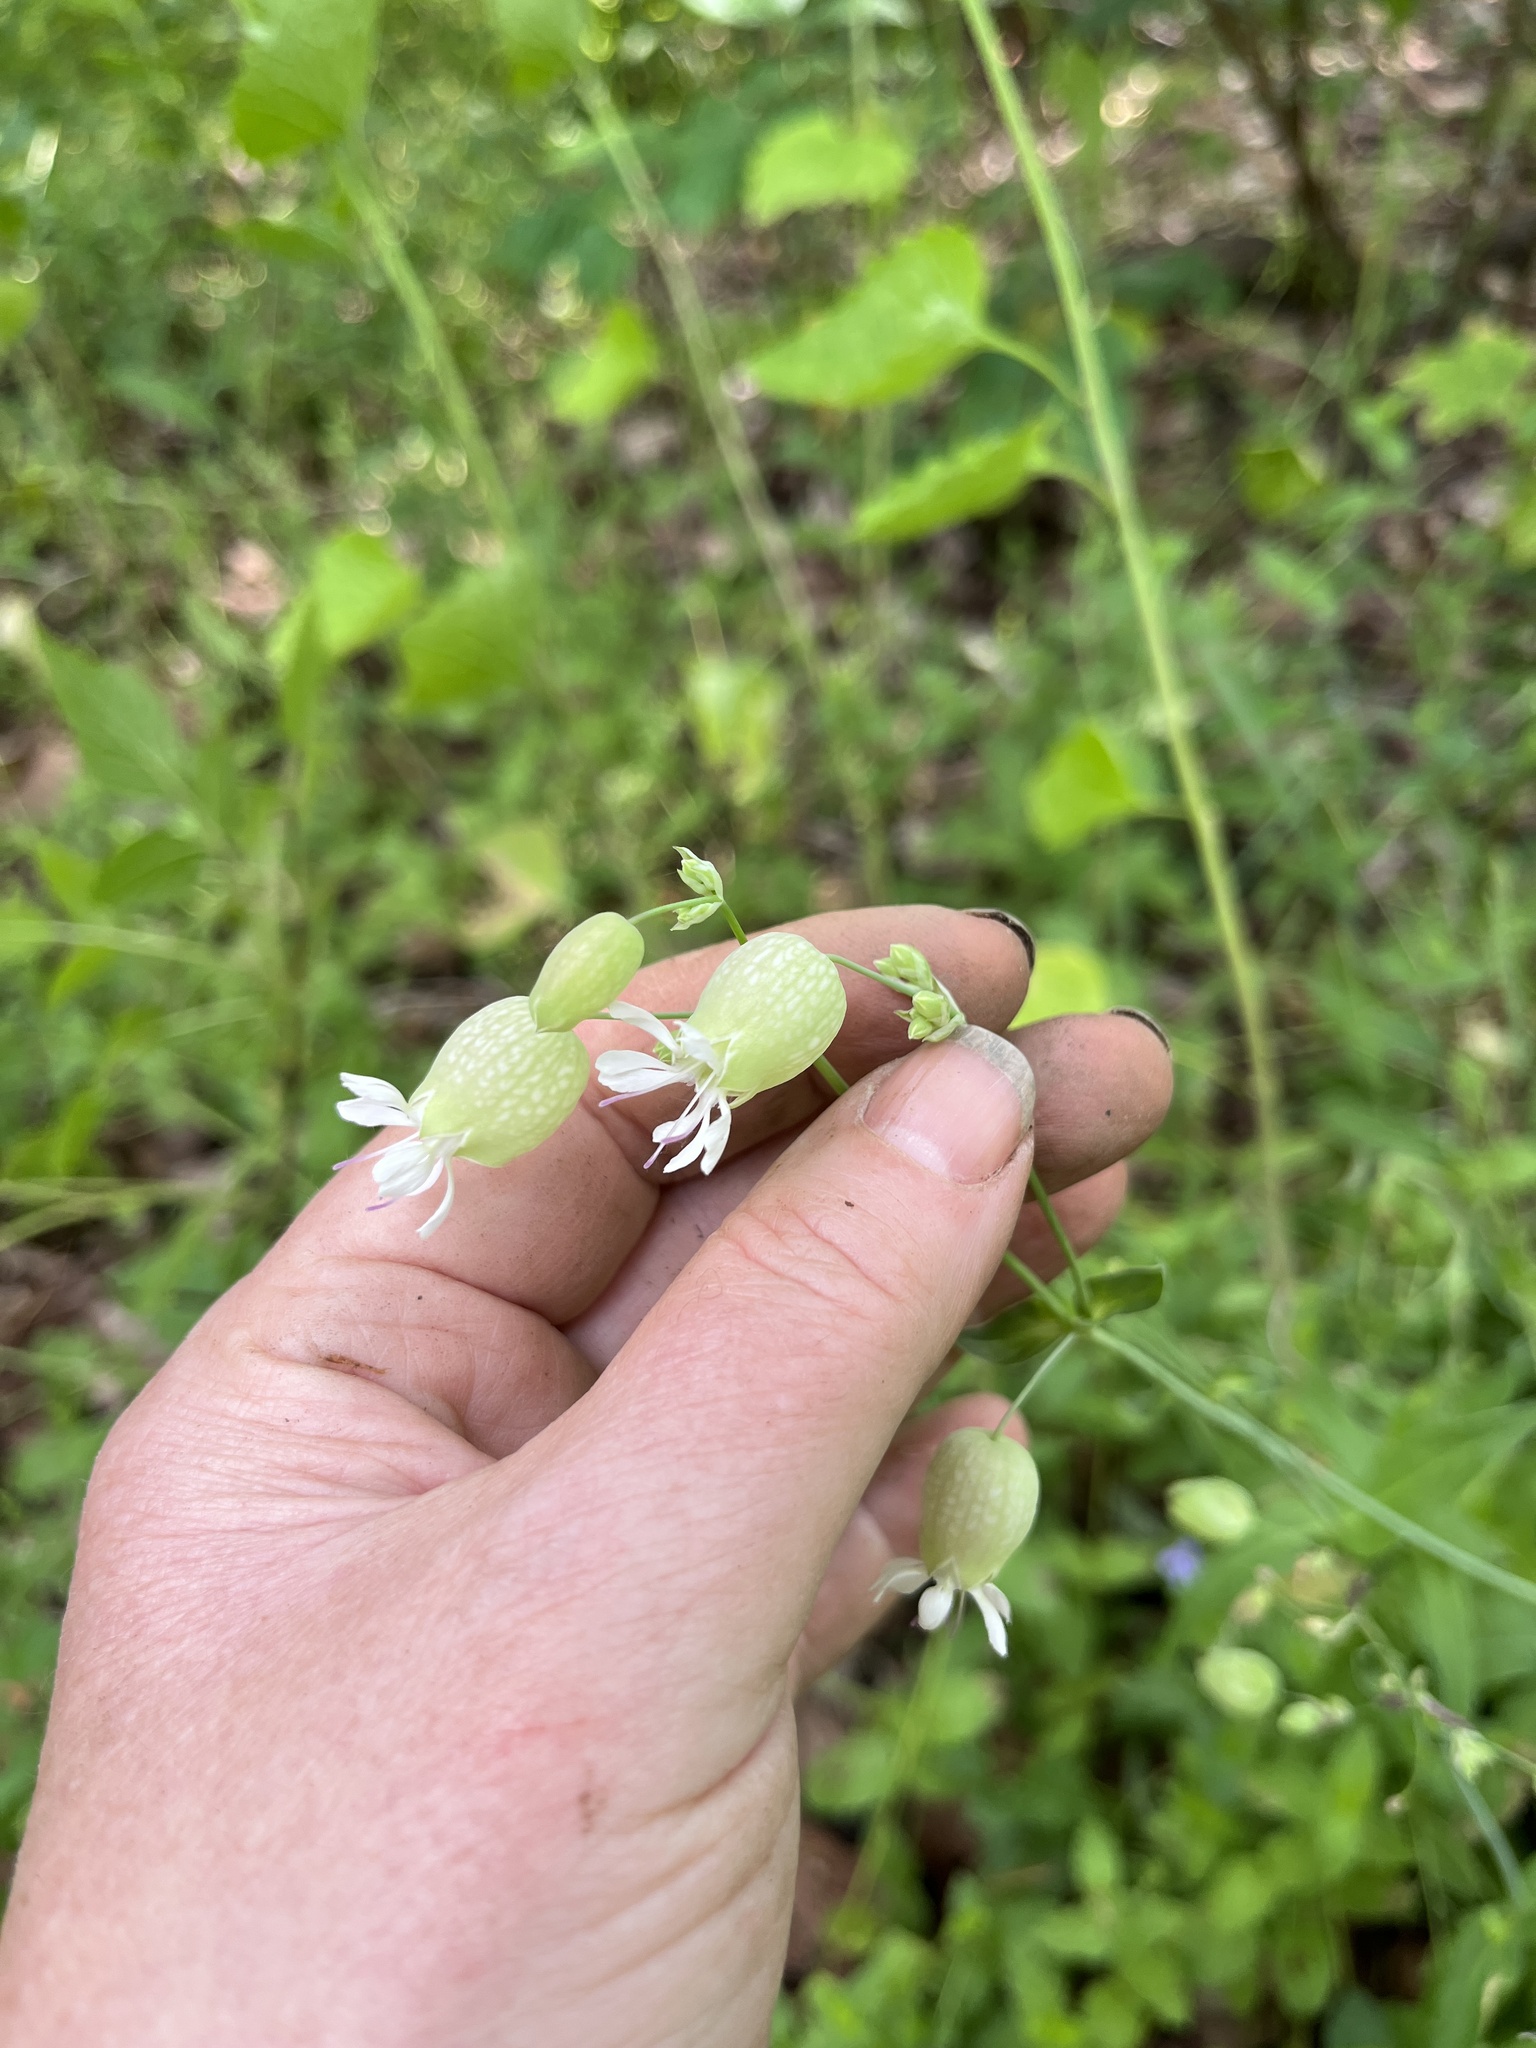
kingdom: Plantae
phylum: Tracheophyta
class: Magnoliopsida
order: Caryophyllales
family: Caryophyllaceae
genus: Silene
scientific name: Silene vulgaris
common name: Bladder campion
